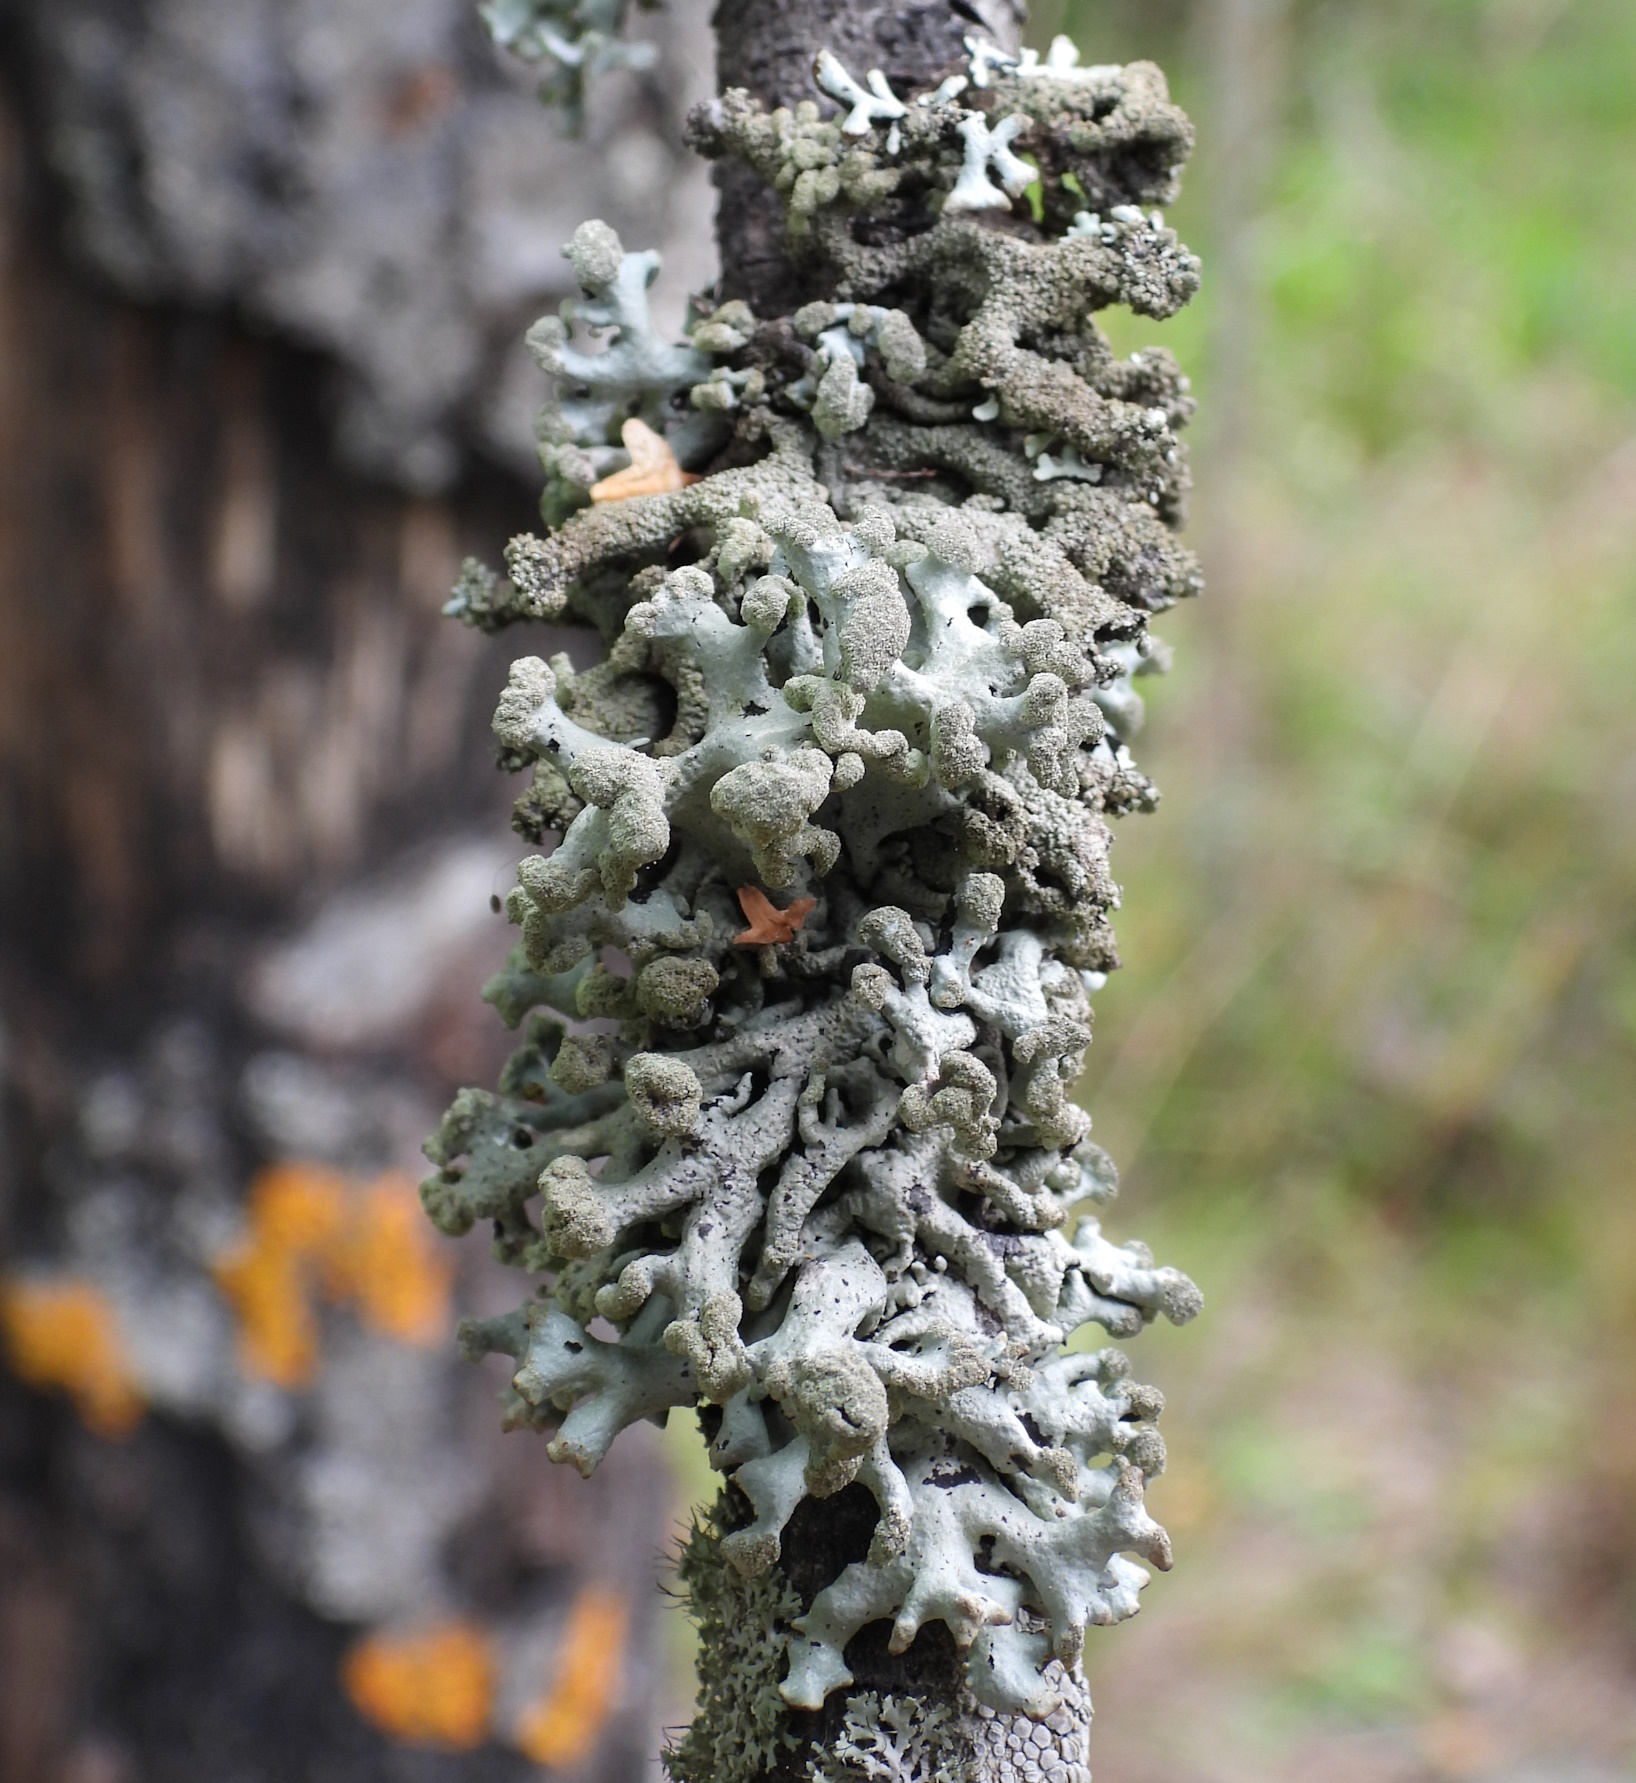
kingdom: Fungi
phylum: Ascomycota
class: Lecanoromycetes
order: Lecanorales
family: Parmeliaceae
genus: Hypogymnia
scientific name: Hypogymnia tubulosa
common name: Powder-headed tube lichen
